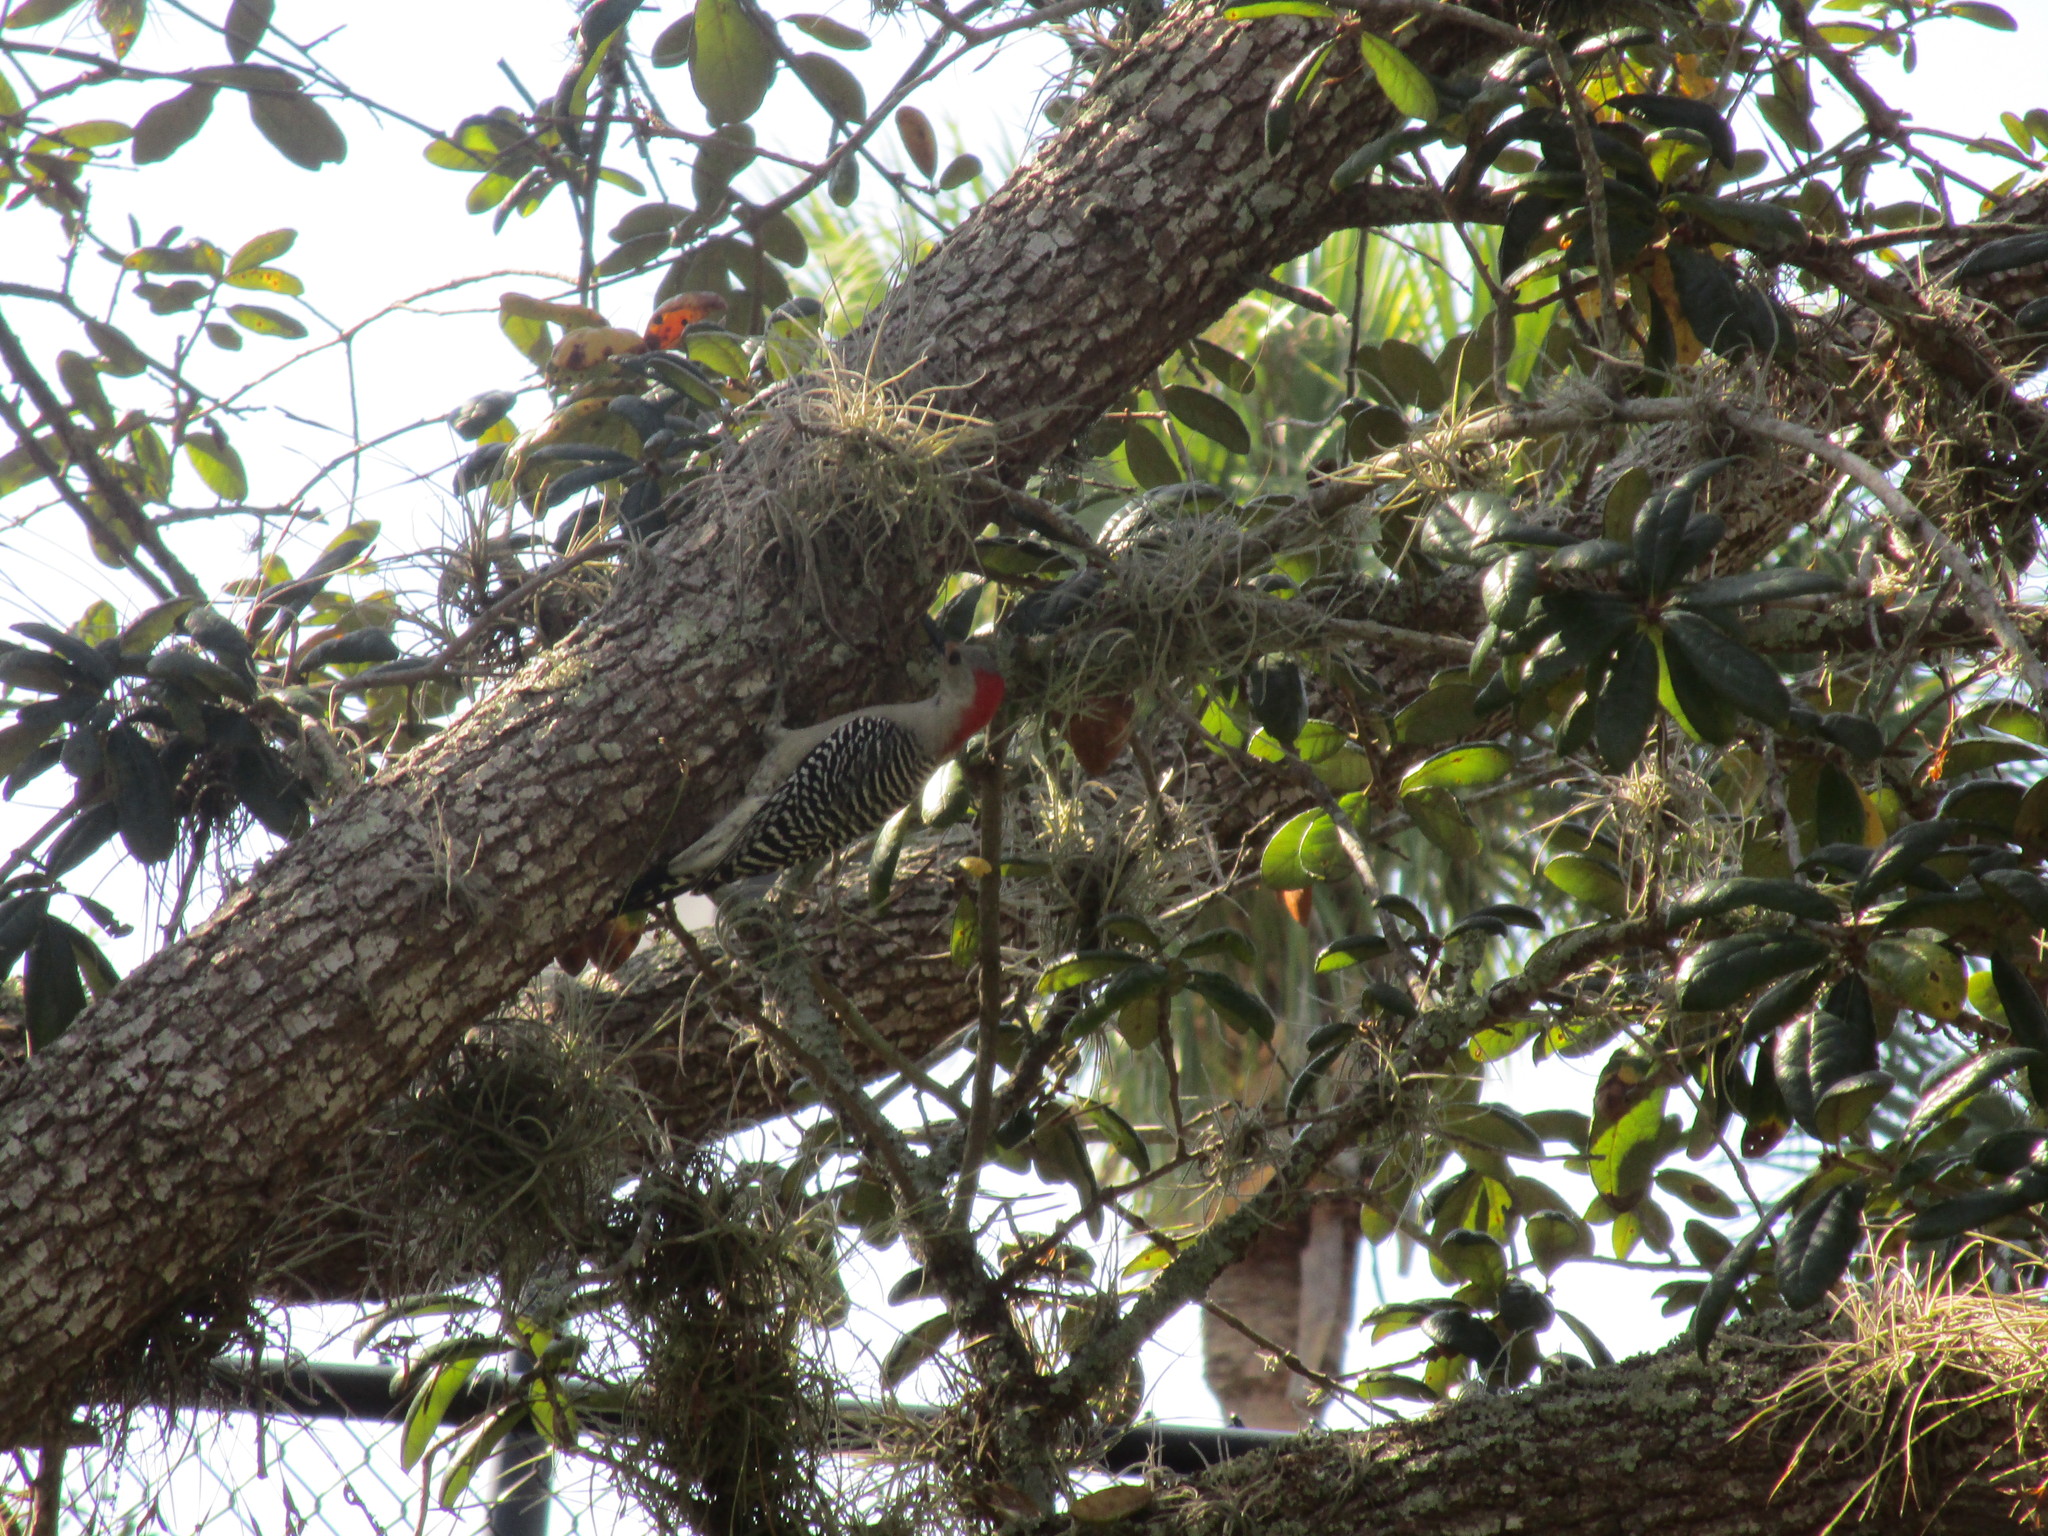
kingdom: Animalia
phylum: Chordata
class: Aves
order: Piciformes
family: Picidae
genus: Melanerpes
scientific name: Melanerpes carolinus
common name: Red-bellied woodpecker
